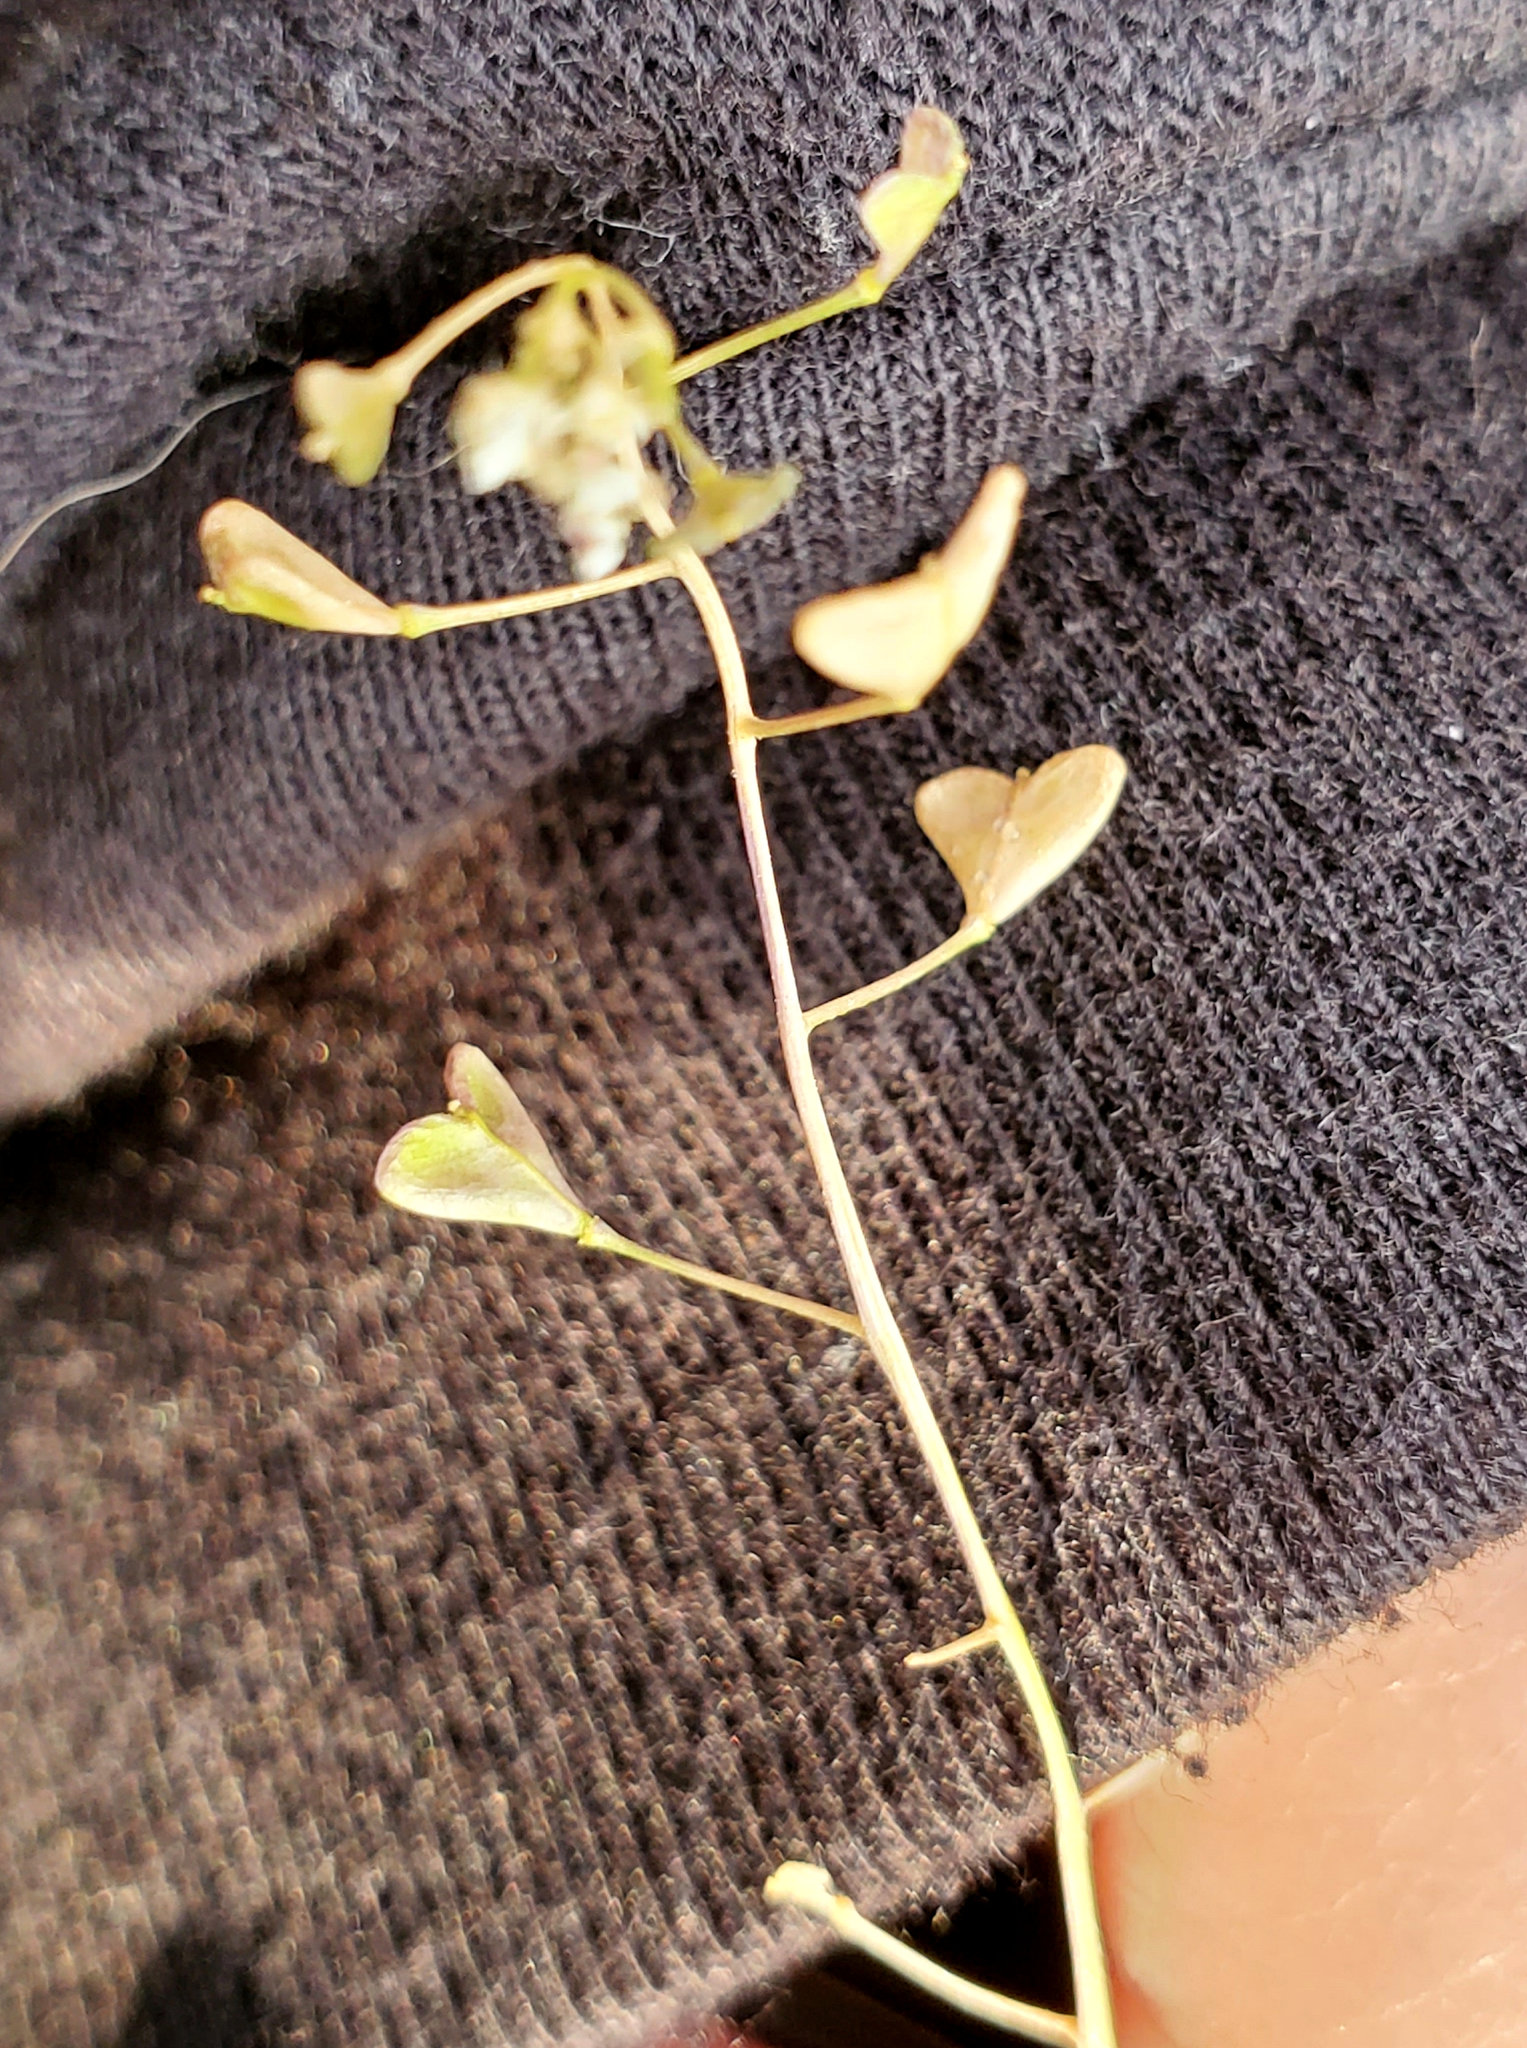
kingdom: Plantae
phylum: Tracheophyta
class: Magnoliopsida
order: Brassicales
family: Brassicaceae
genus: Capsella
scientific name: Capsella bursa-pastoris
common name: Shepherd's purse
